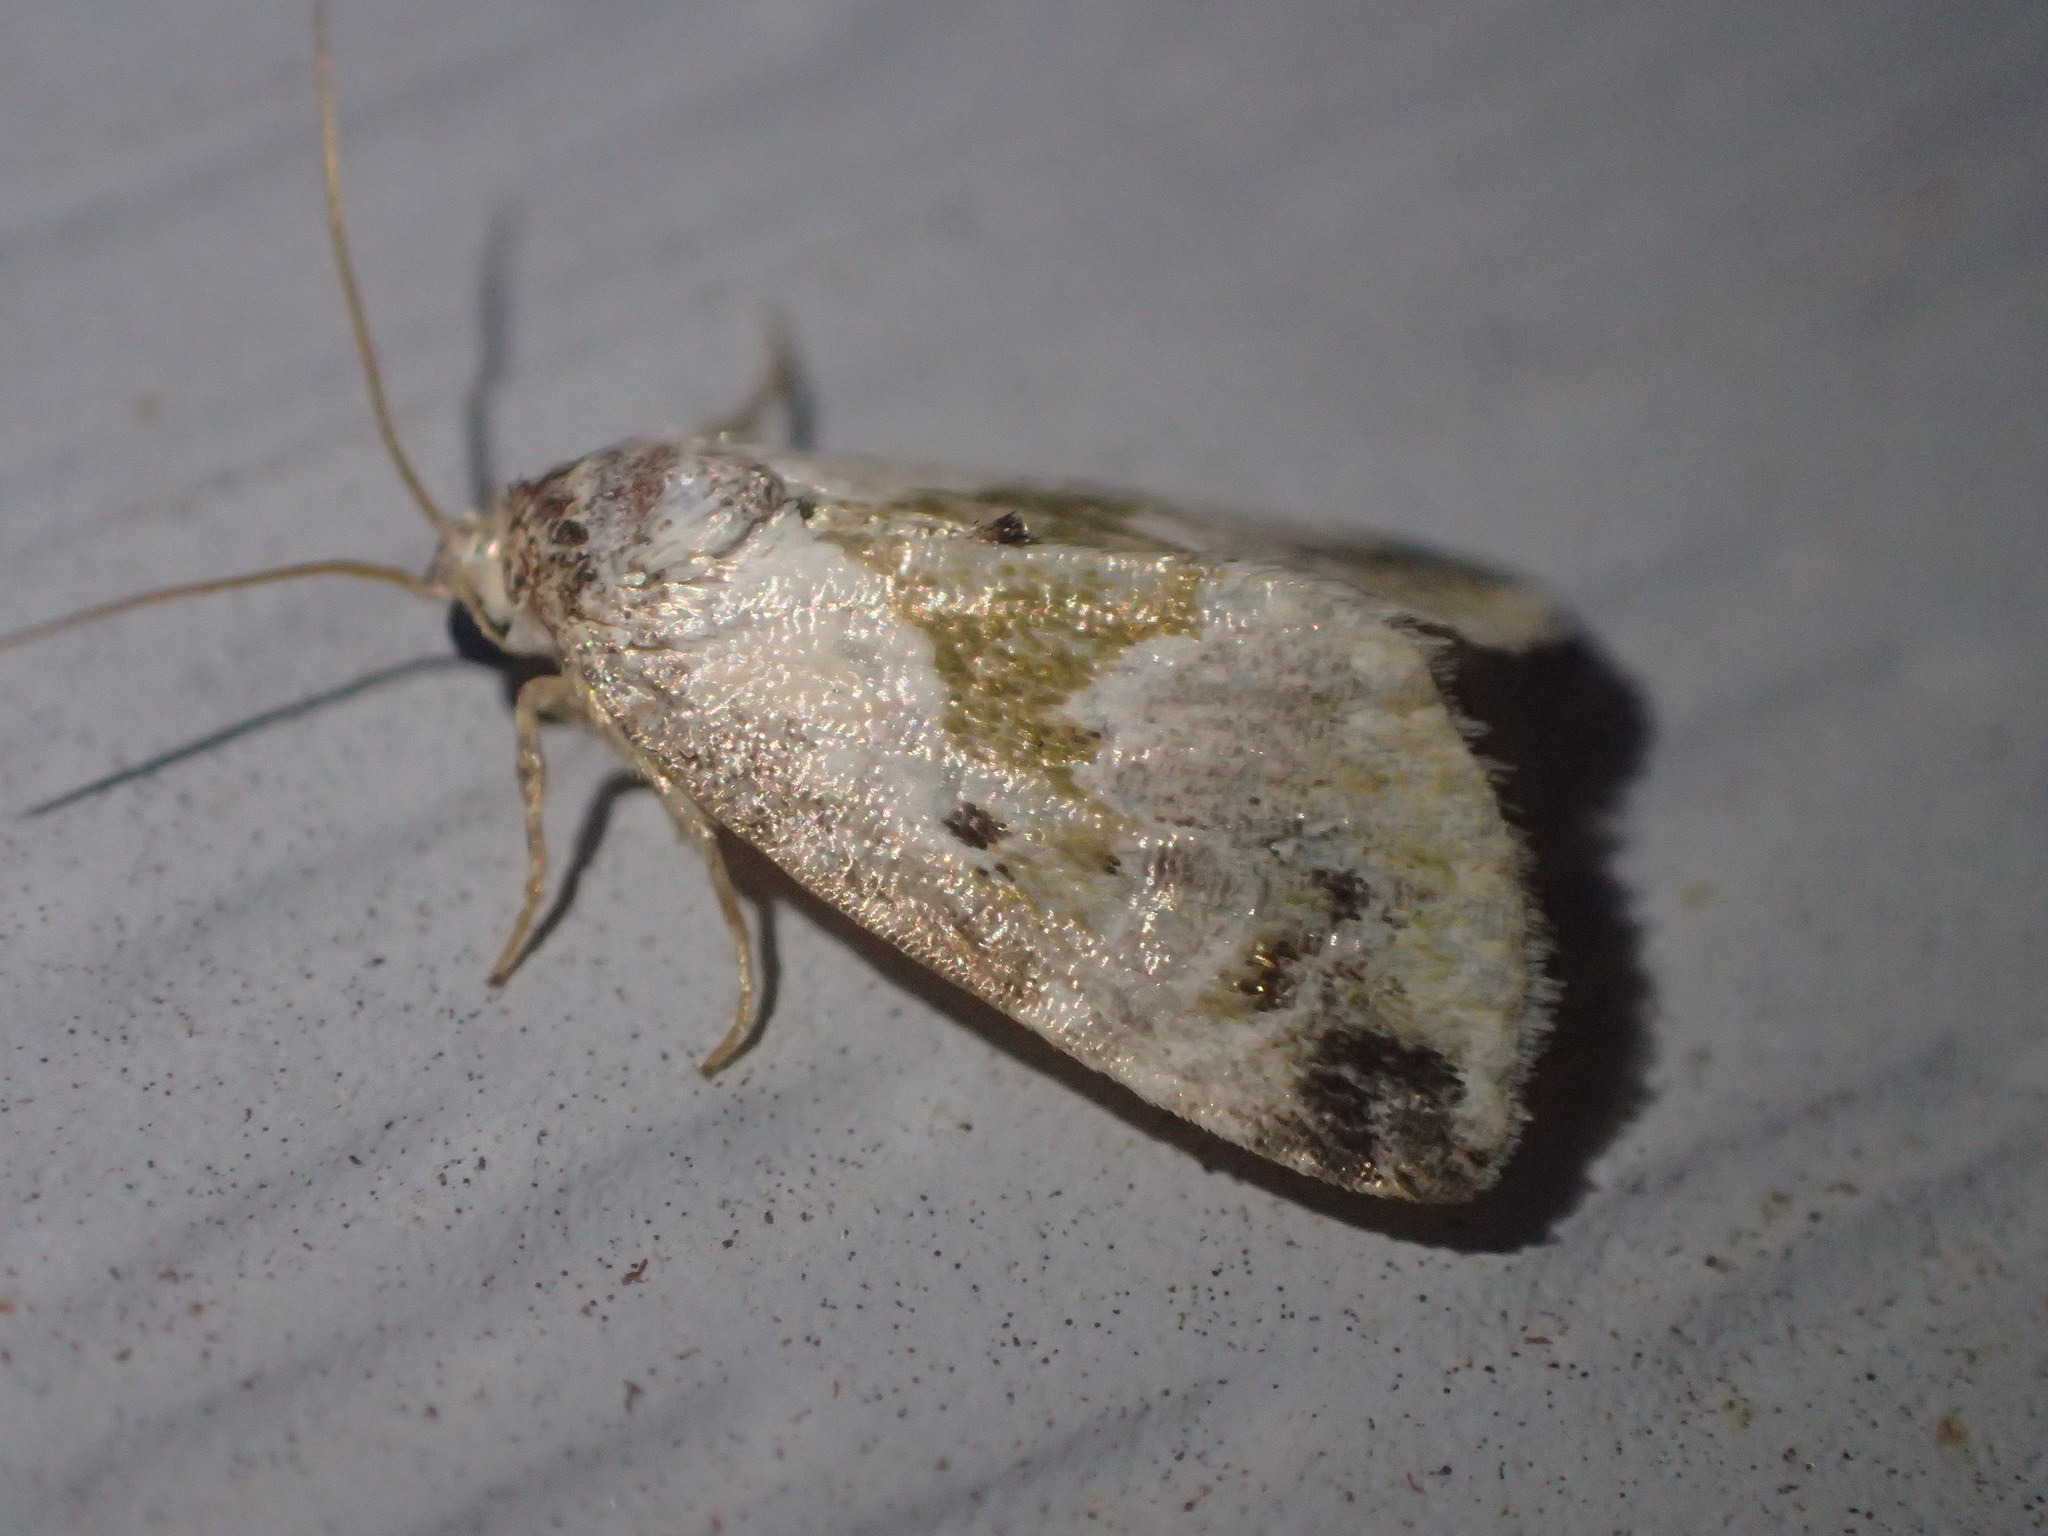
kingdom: Animalia
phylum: Arthropoda
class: Insecta
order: Lepidoptera
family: Noctuidae
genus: Maliattha
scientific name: Maliattha synochitis
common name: Black-dotted glyph
